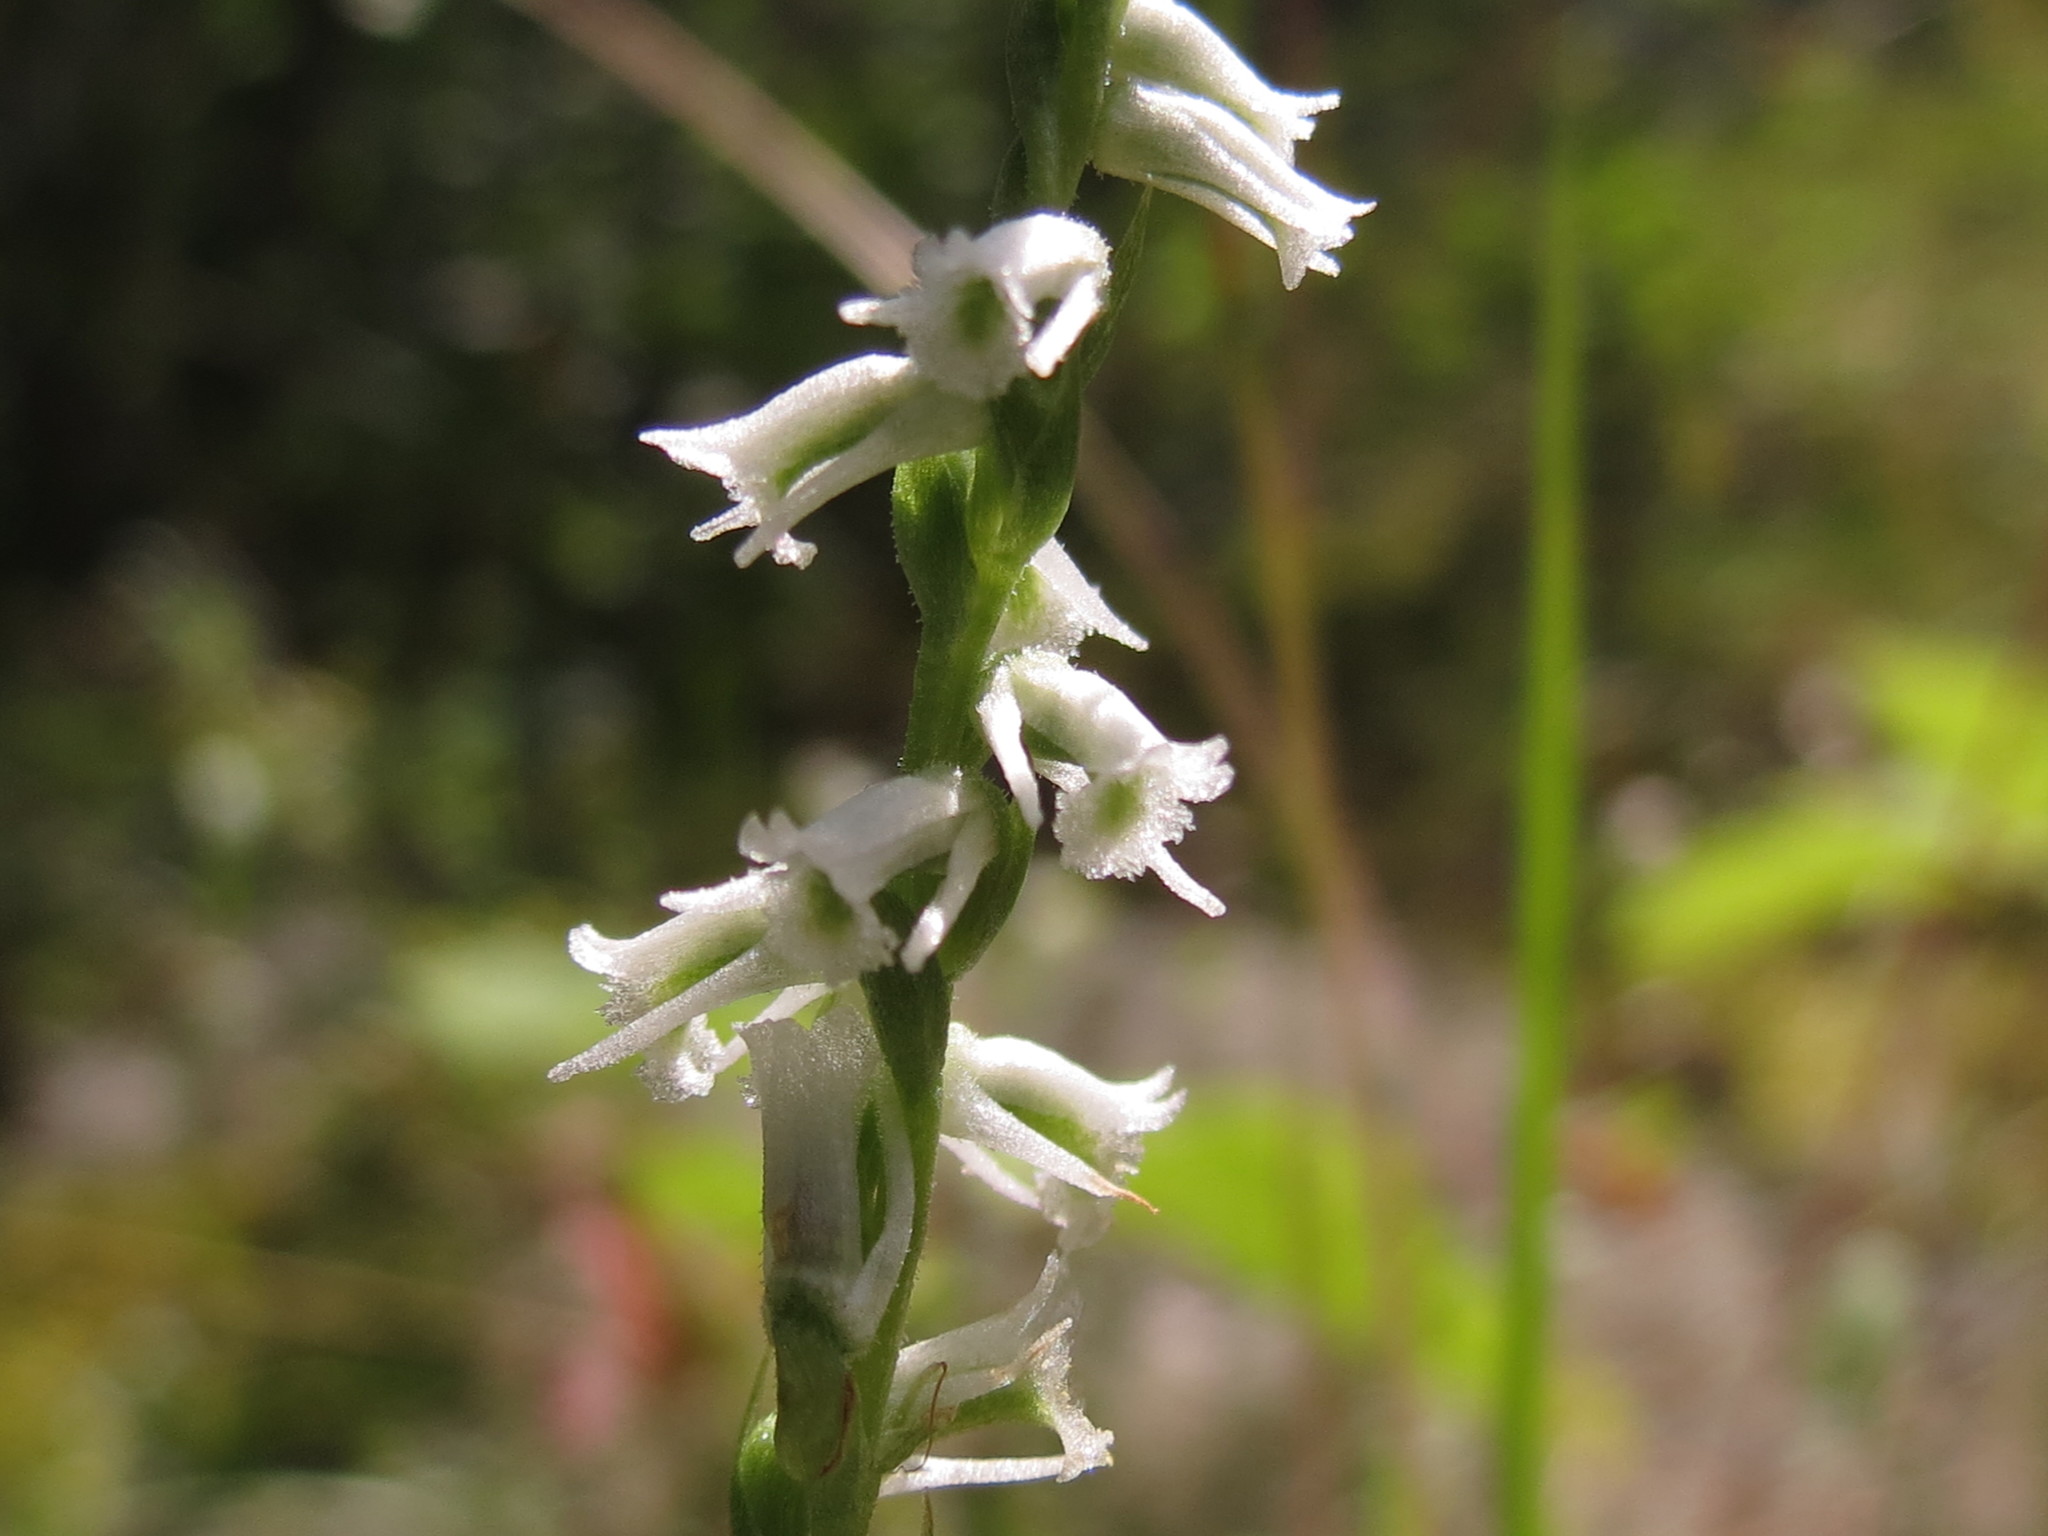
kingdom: Plantae
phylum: Tracheophyta
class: Liliopsida
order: Asparagales
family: Orchidaceae
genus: Spiranthes
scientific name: Spiranthes lacera
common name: Northern slender ladies'-tresses
